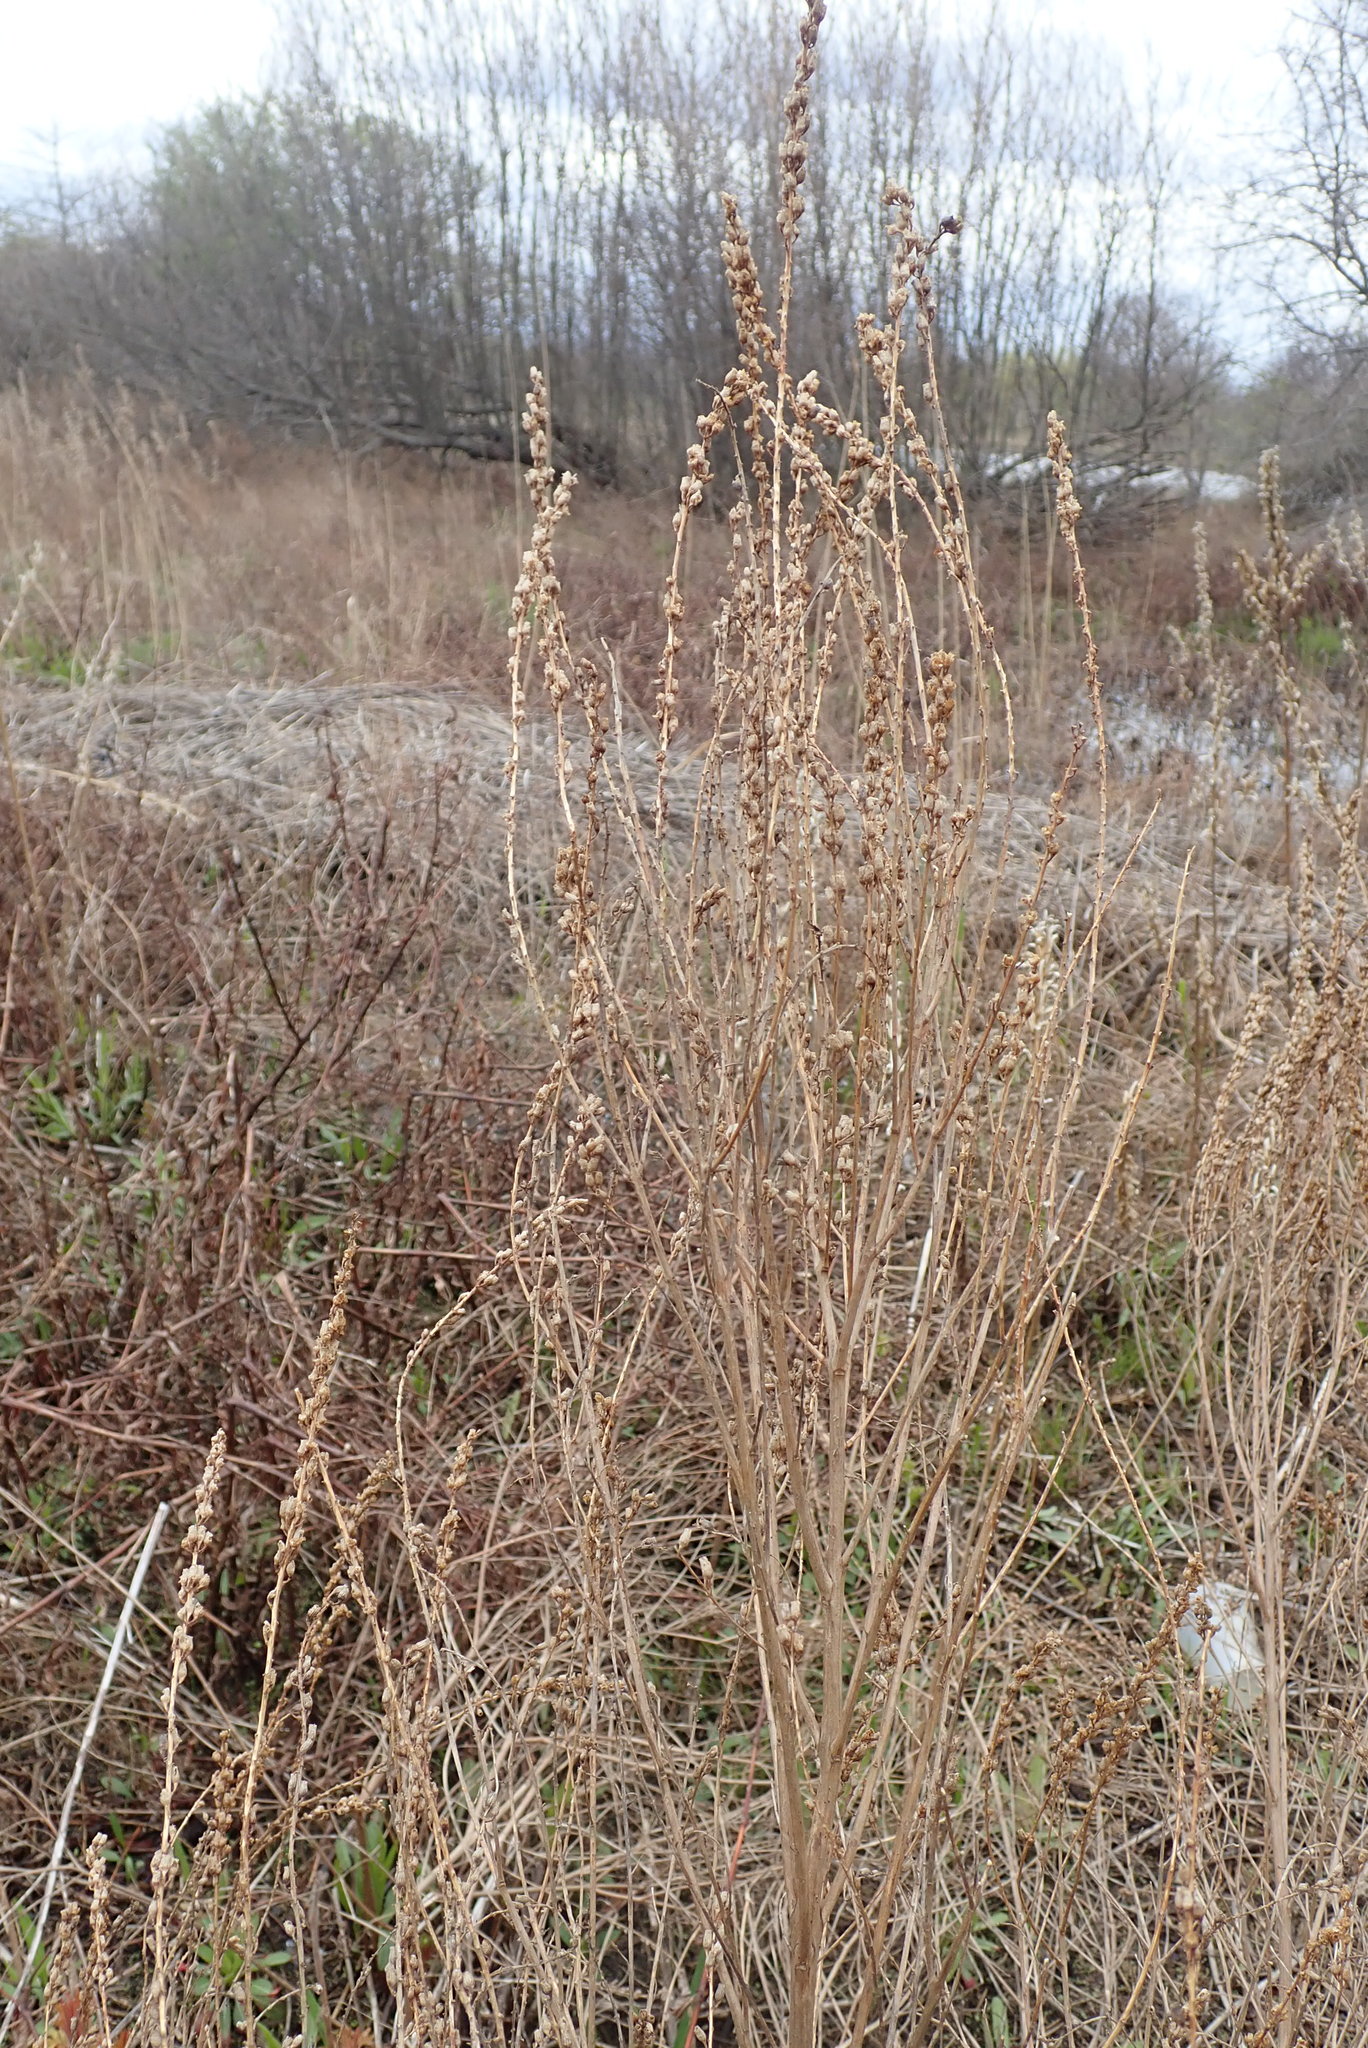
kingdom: Plantae
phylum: Tracheophyta
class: Magnoliopsida
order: Asterales
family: Asteraceae
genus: Artemisia
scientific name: Artemisia vulgaris
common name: Mugwort
